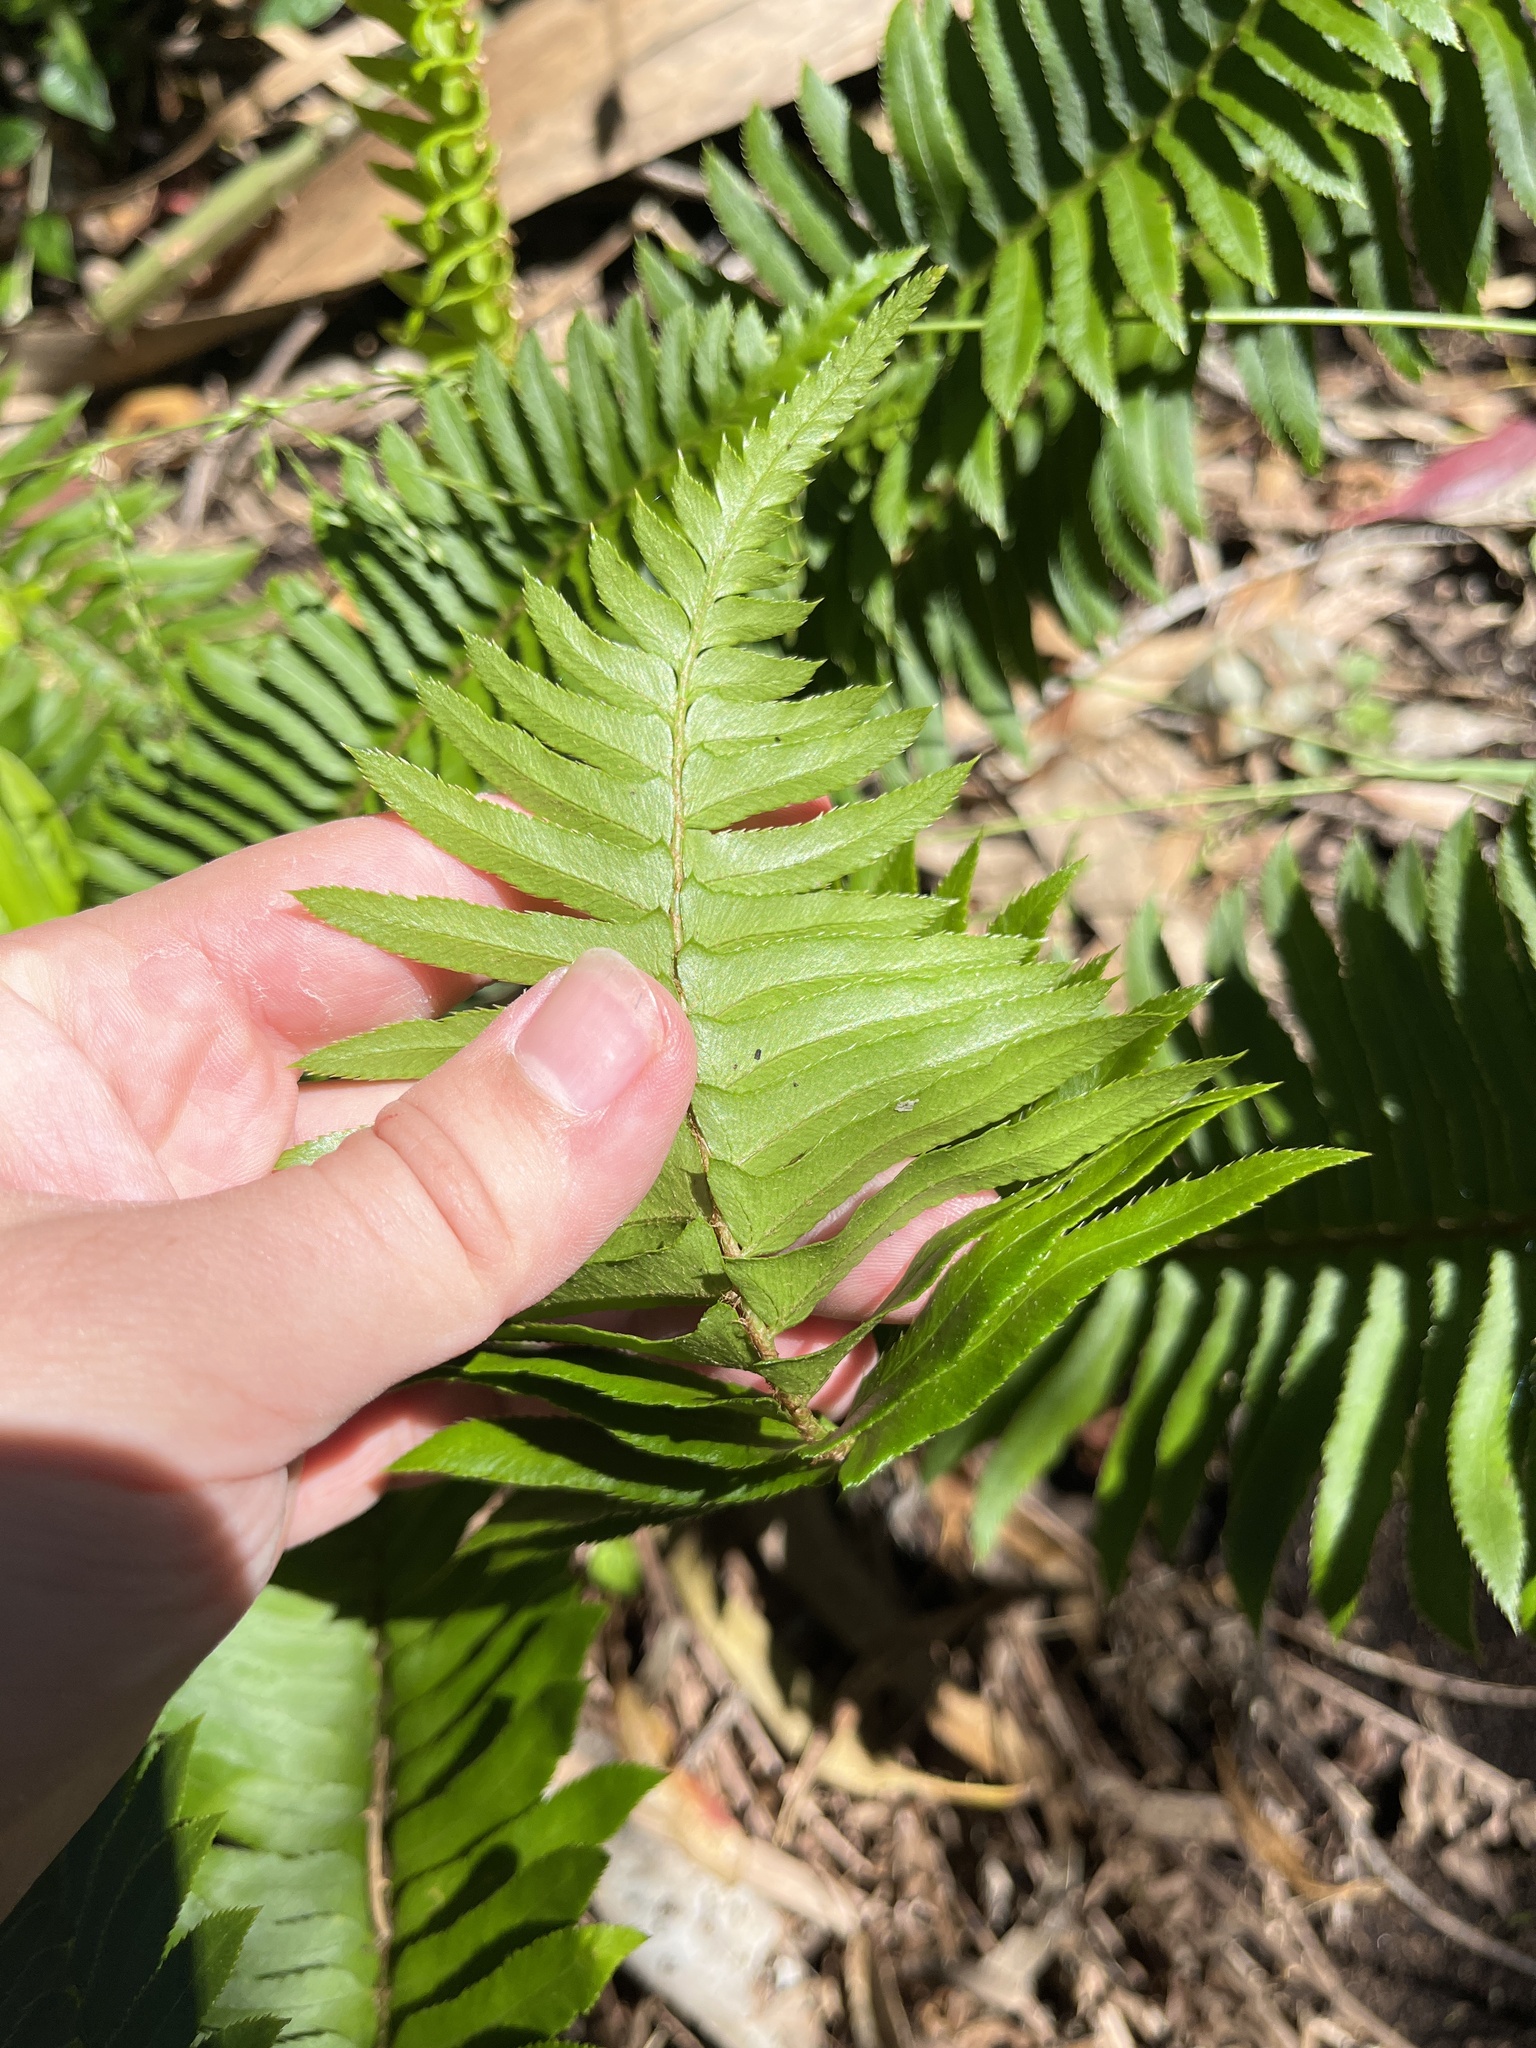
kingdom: Plantae
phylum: Tracheophyta
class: Polypodiopsida
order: Polypodiales
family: Dryopteridaceae
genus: Polystichum
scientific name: Polystichum munitum
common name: Western sword-fern
